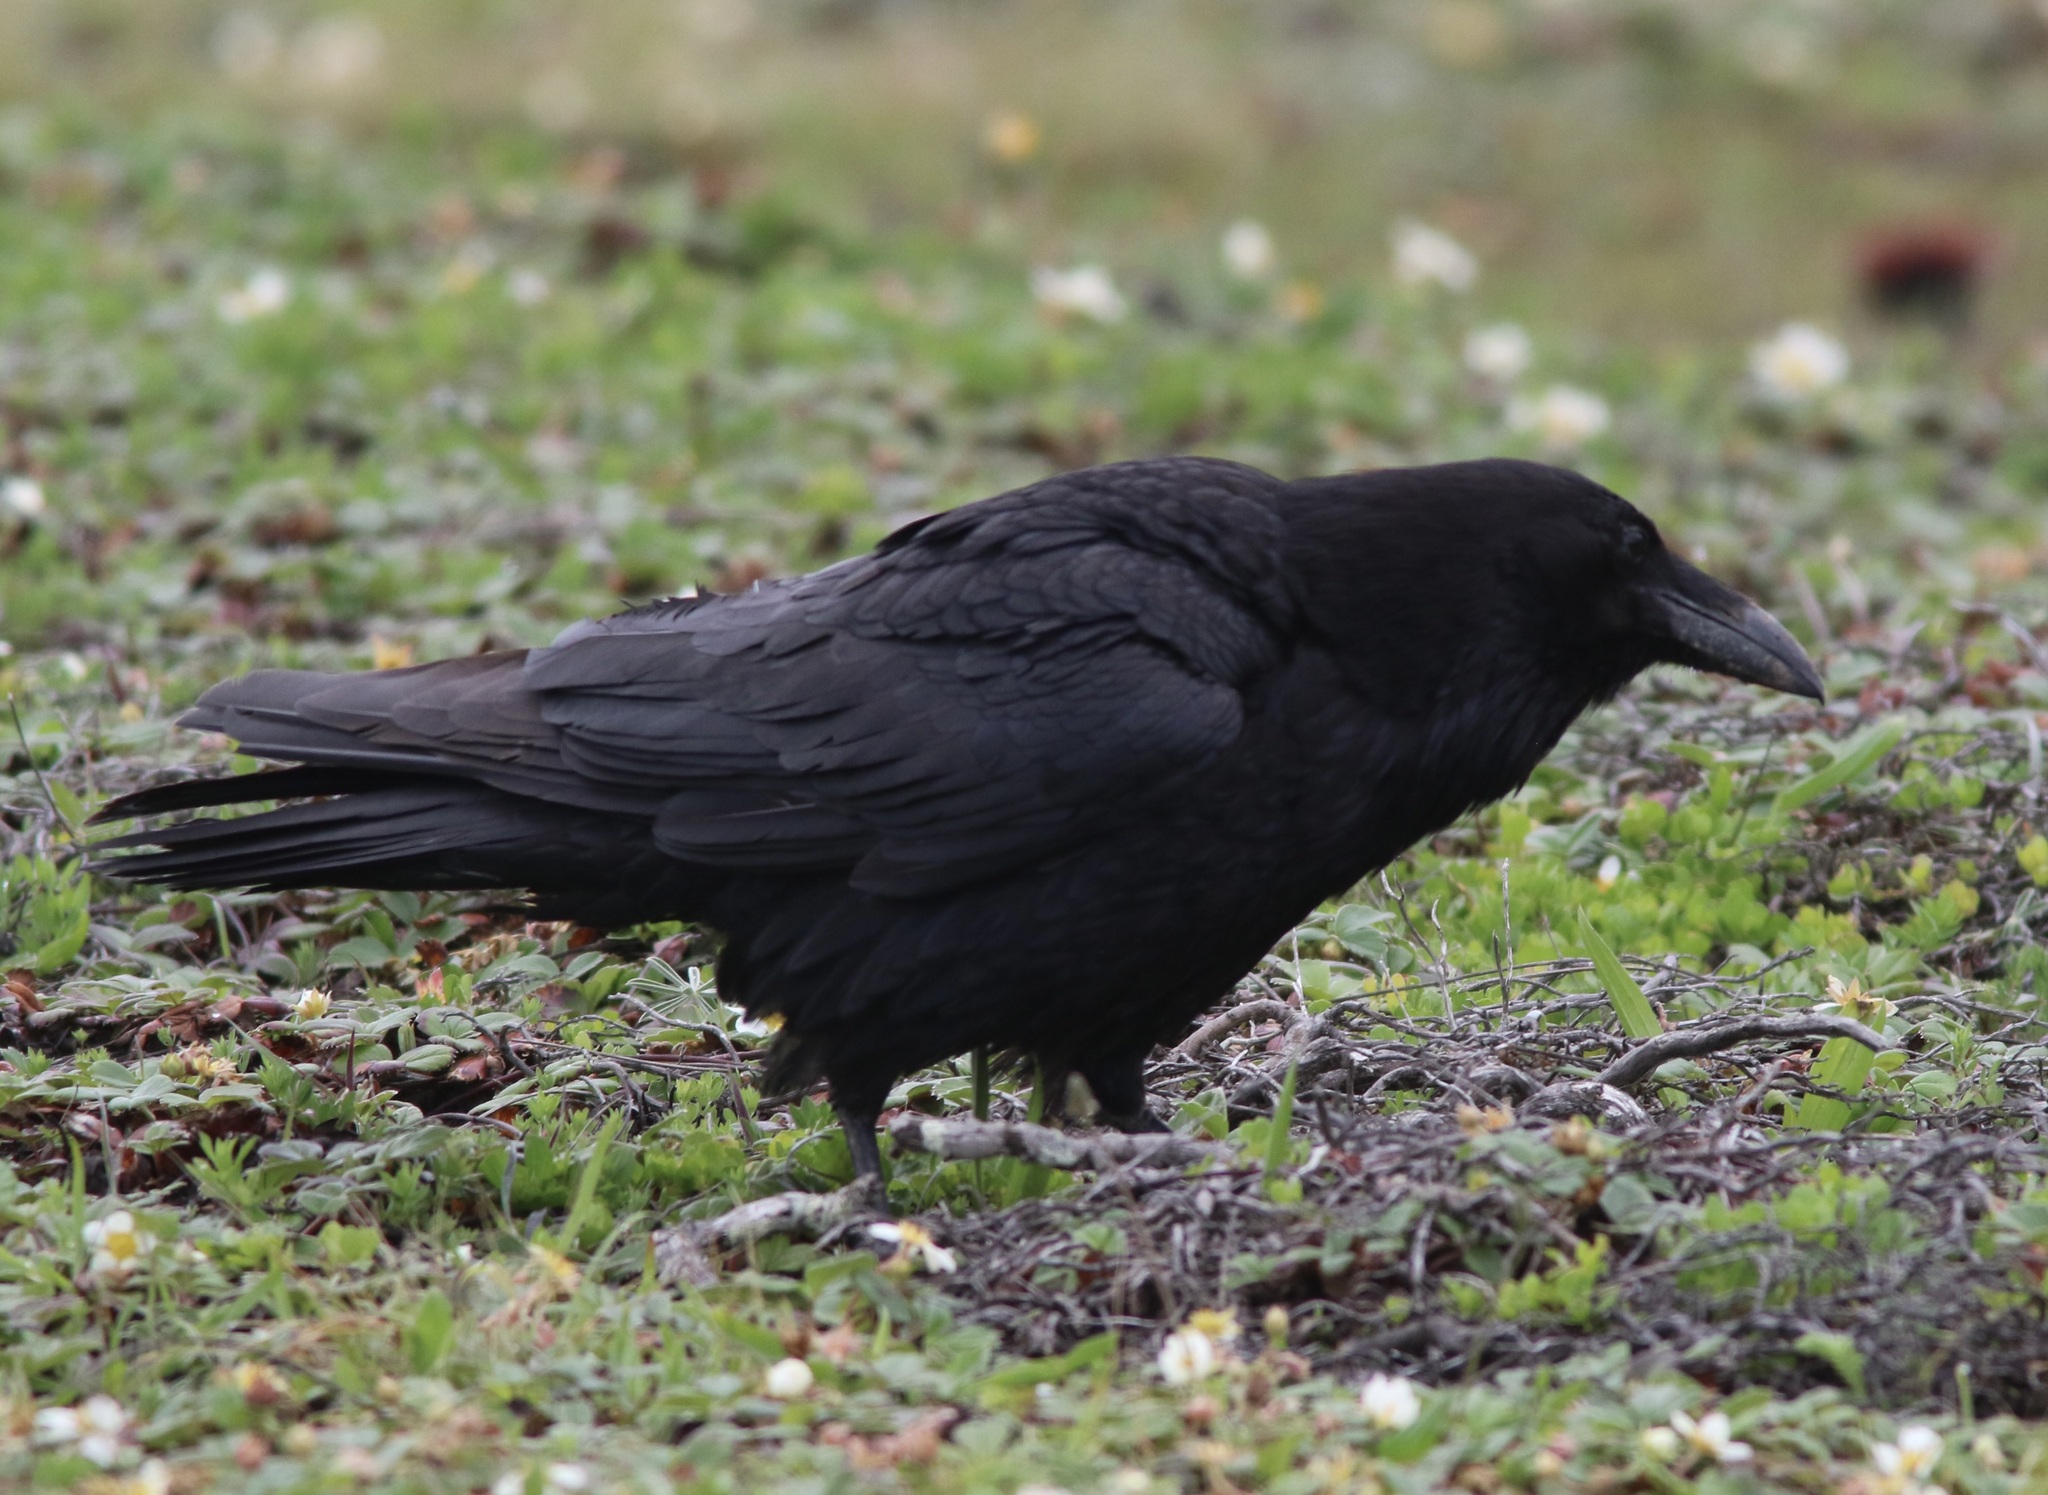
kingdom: Animalia
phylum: Chordata
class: Aves
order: Passeriformes
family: Corvidae
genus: Corvus
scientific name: Corvus corax
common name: Common raven
